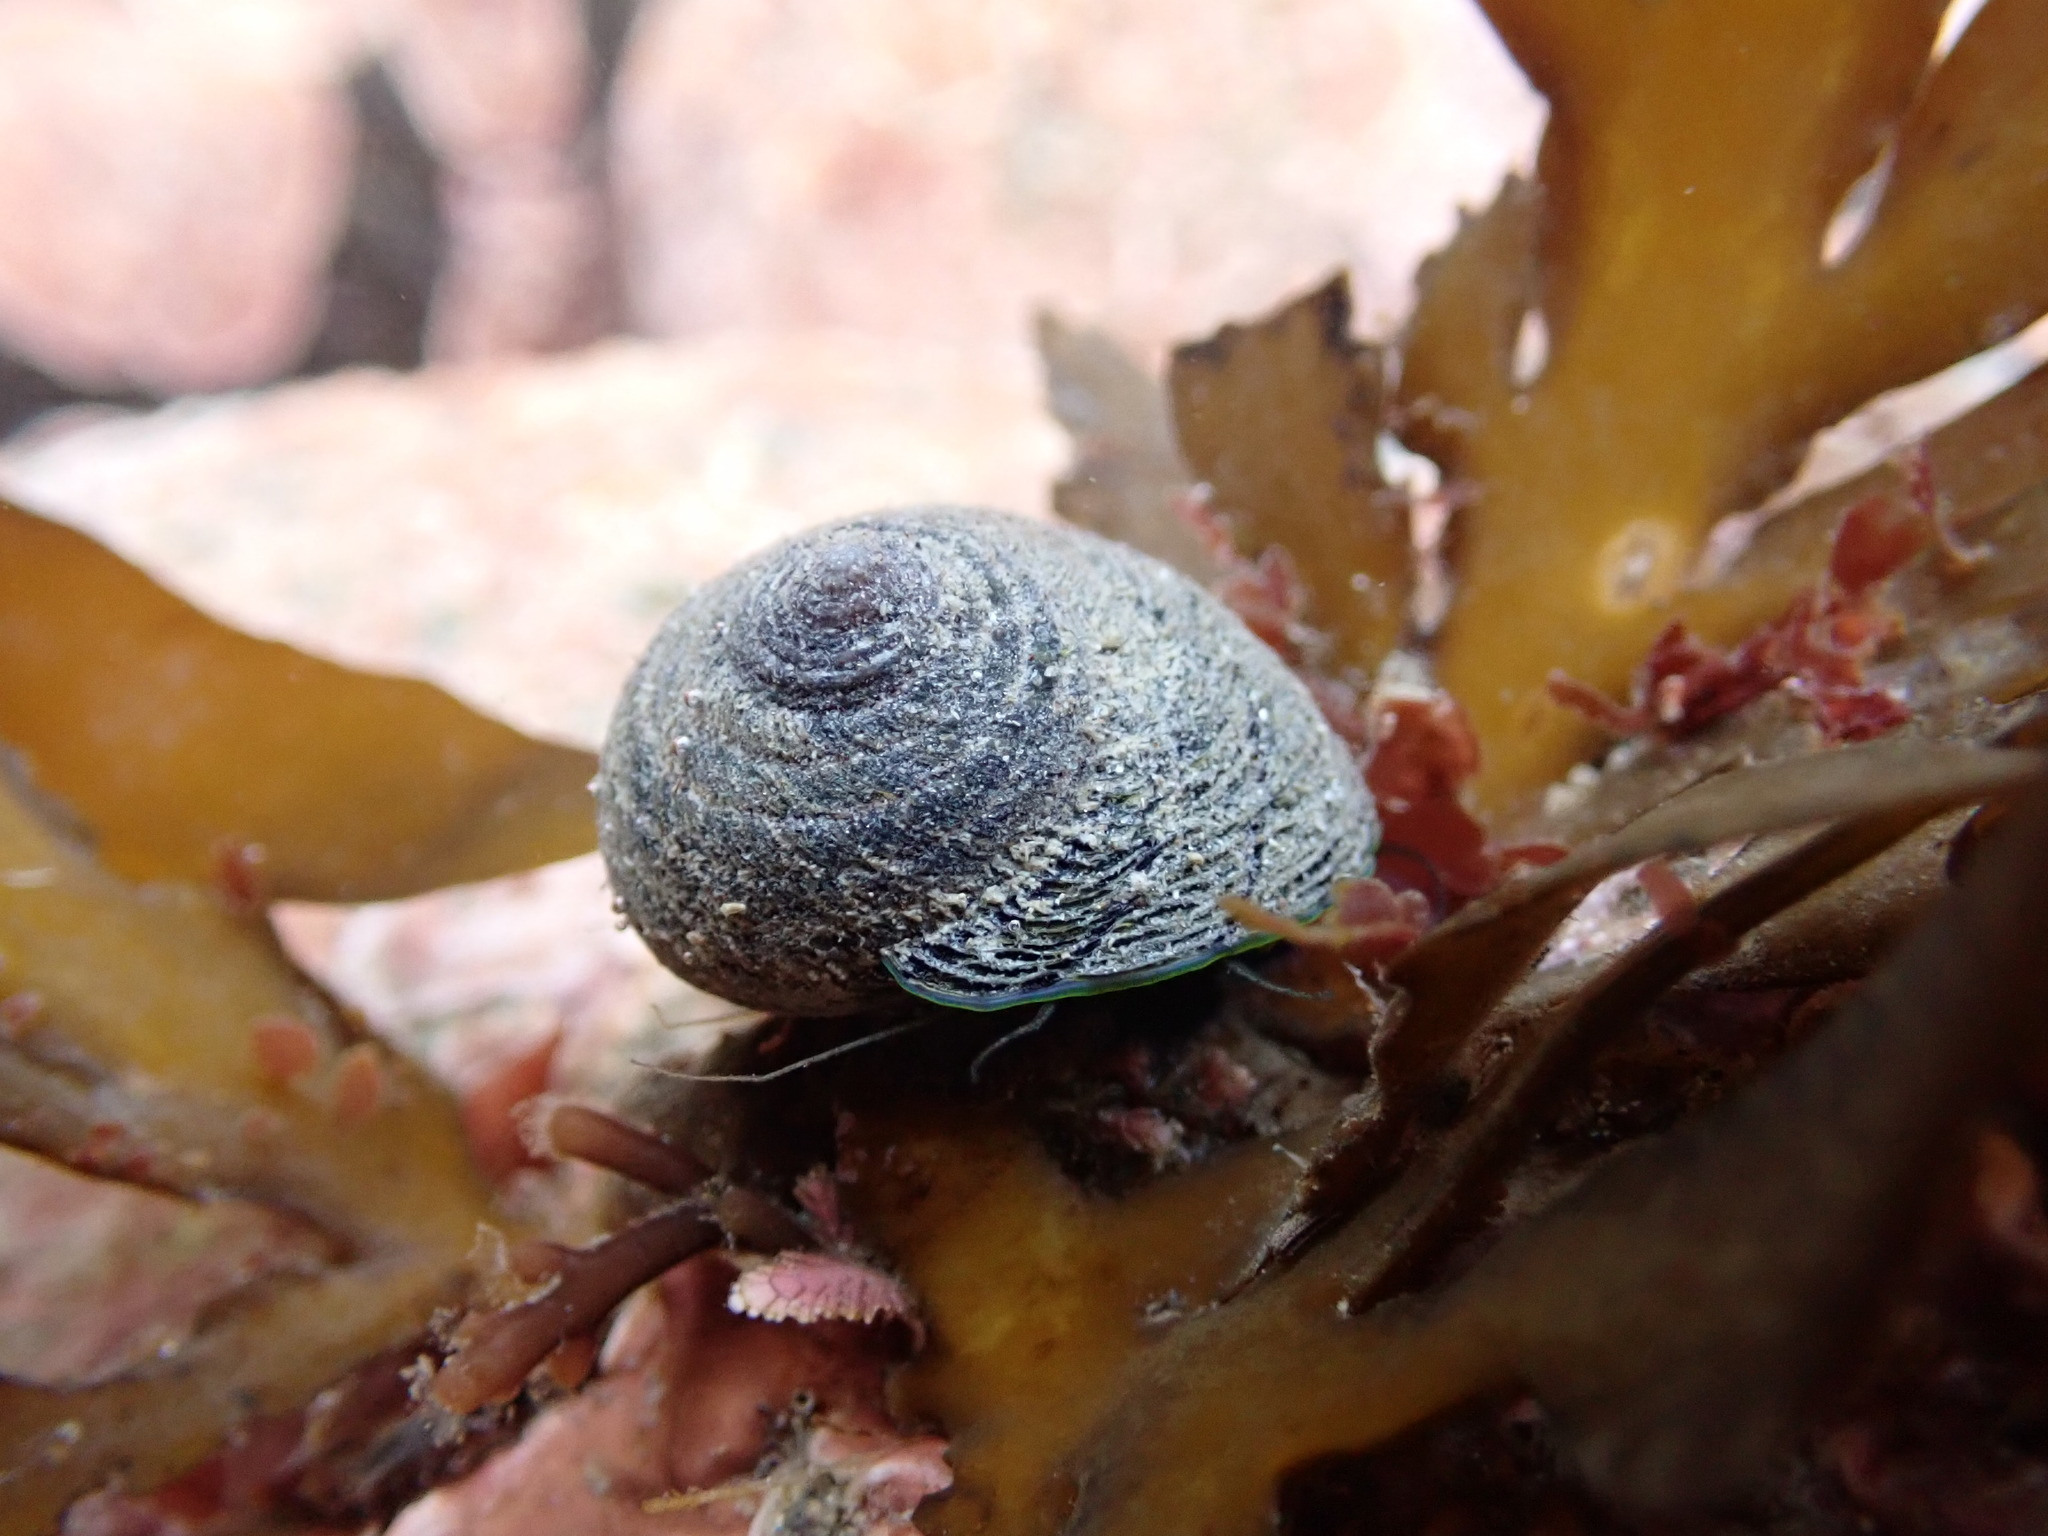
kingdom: Animalia
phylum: Mollusca
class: Gastropoda
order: Trochida
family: Trochidae
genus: Diloma
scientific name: Diloma aethiops
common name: Scorched monodont
